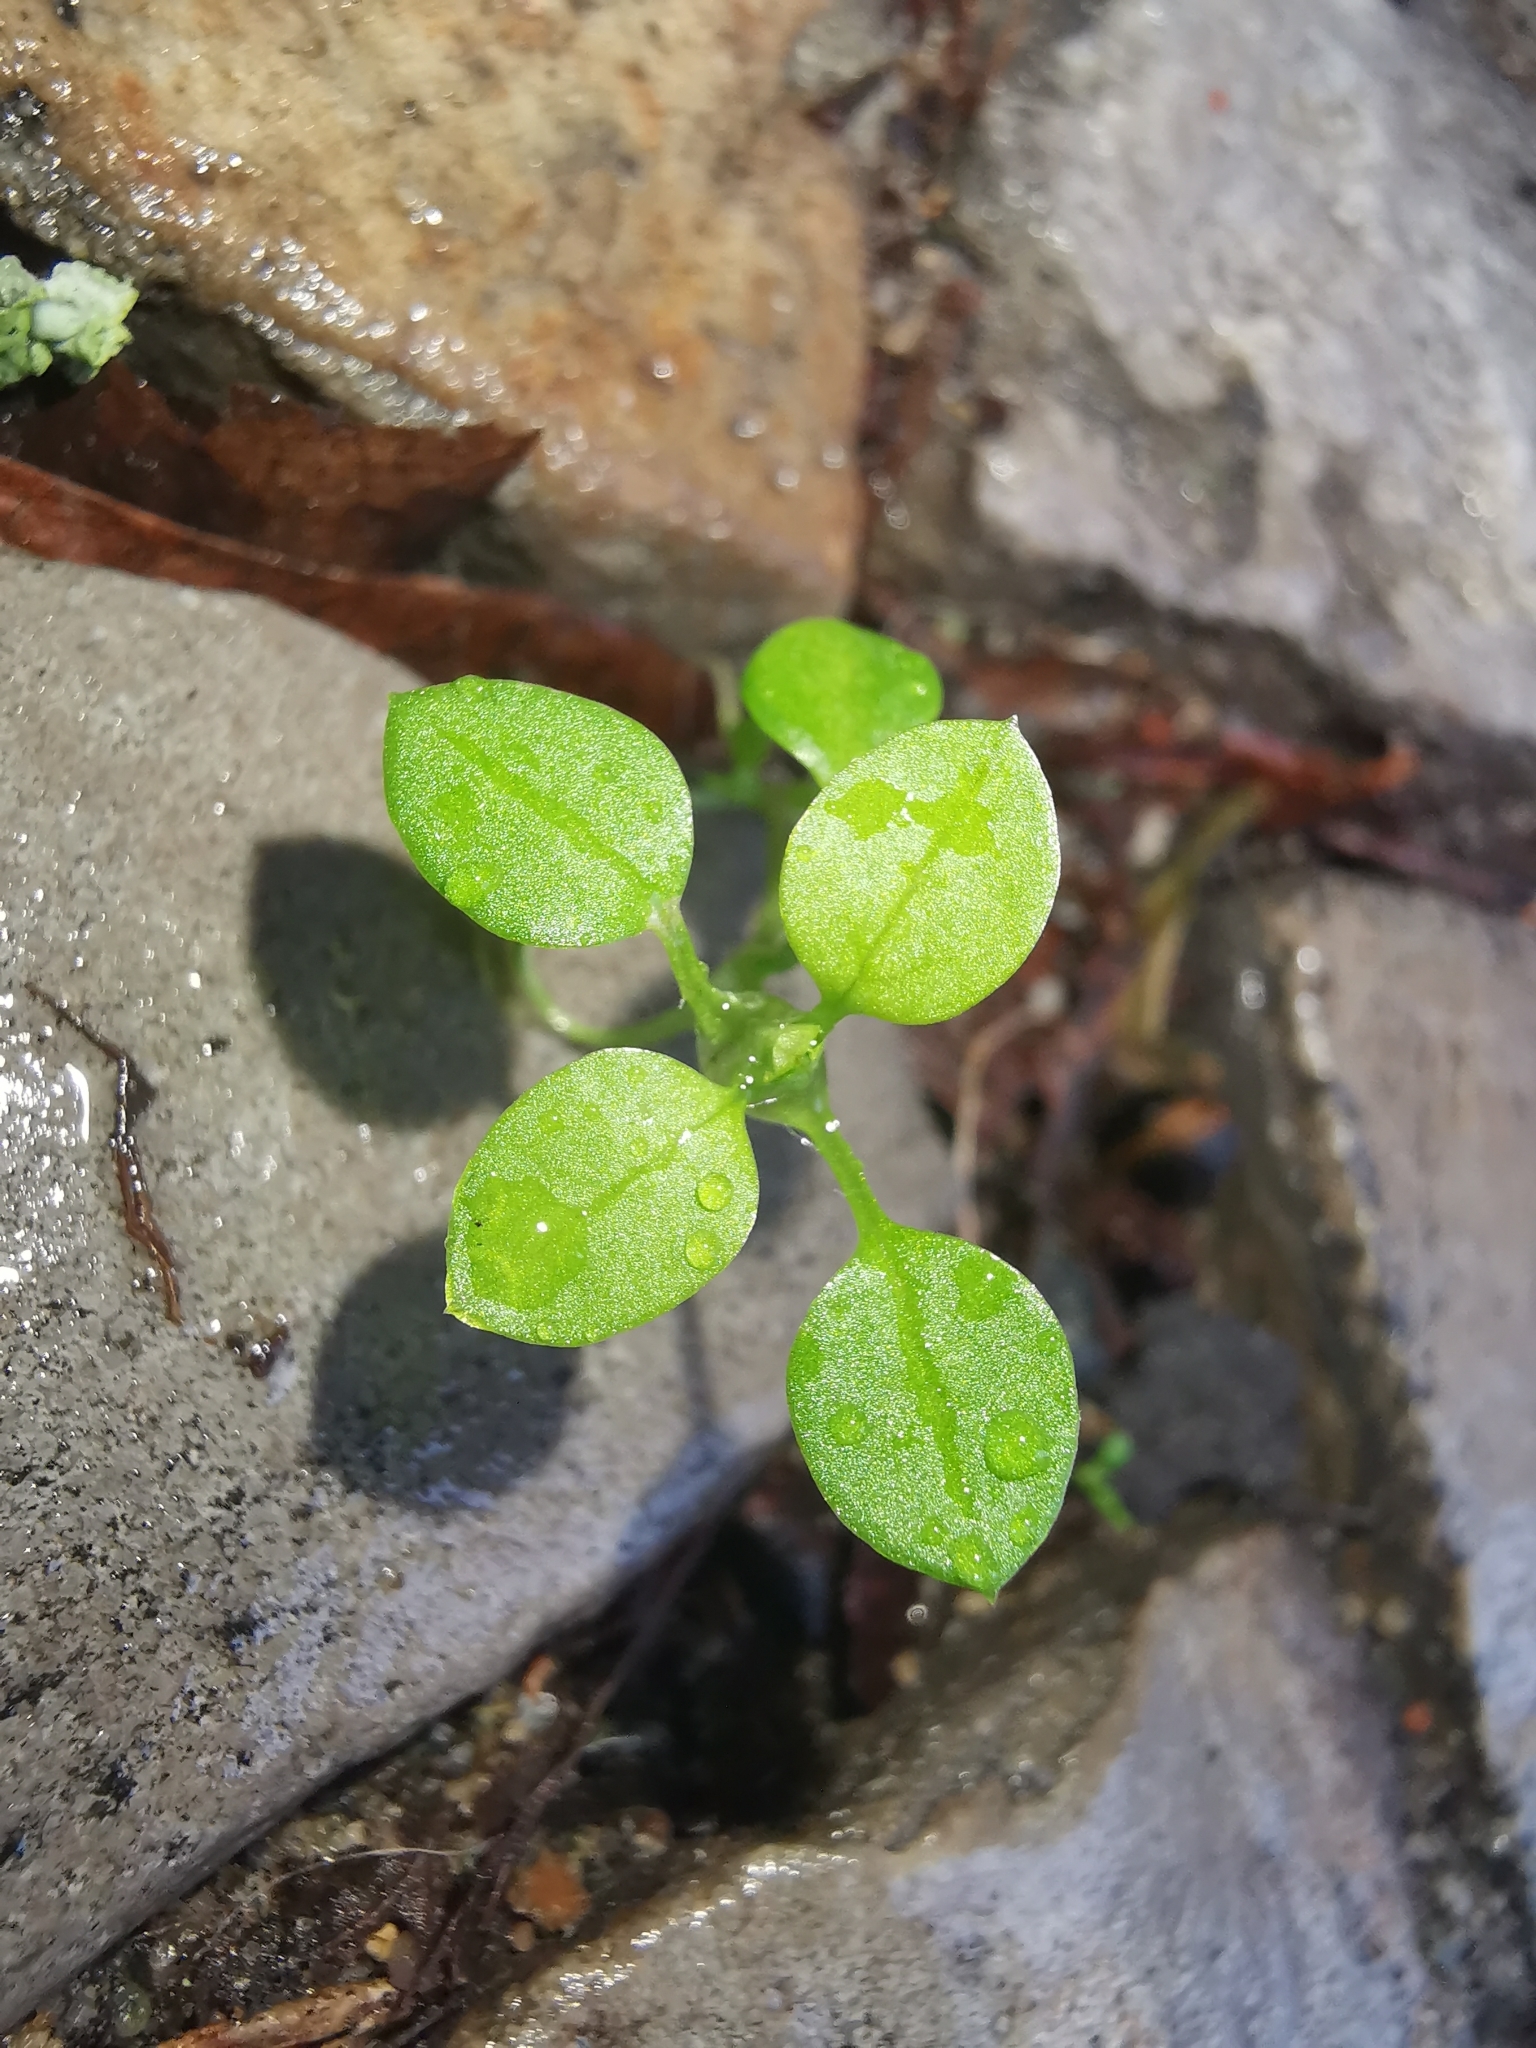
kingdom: Plantae
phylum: Tracheophyta
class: Magnoliopsida
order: Caryophyllales
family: Caryophyllaceae
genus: Stellaria
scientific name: Stellaria media
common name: Common chickweed
